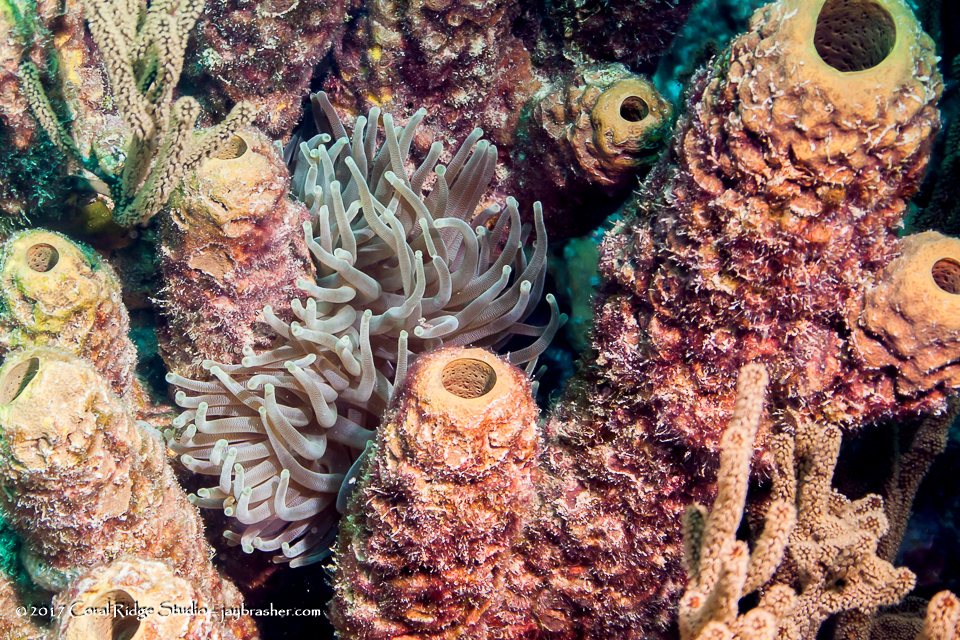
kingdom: Animalia
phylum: Porifera
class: Demospongiae
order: Verongiida
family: Aplysinidae
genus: Aplysina
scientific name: Aplysina archeri
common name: Stove-pipe sponge
